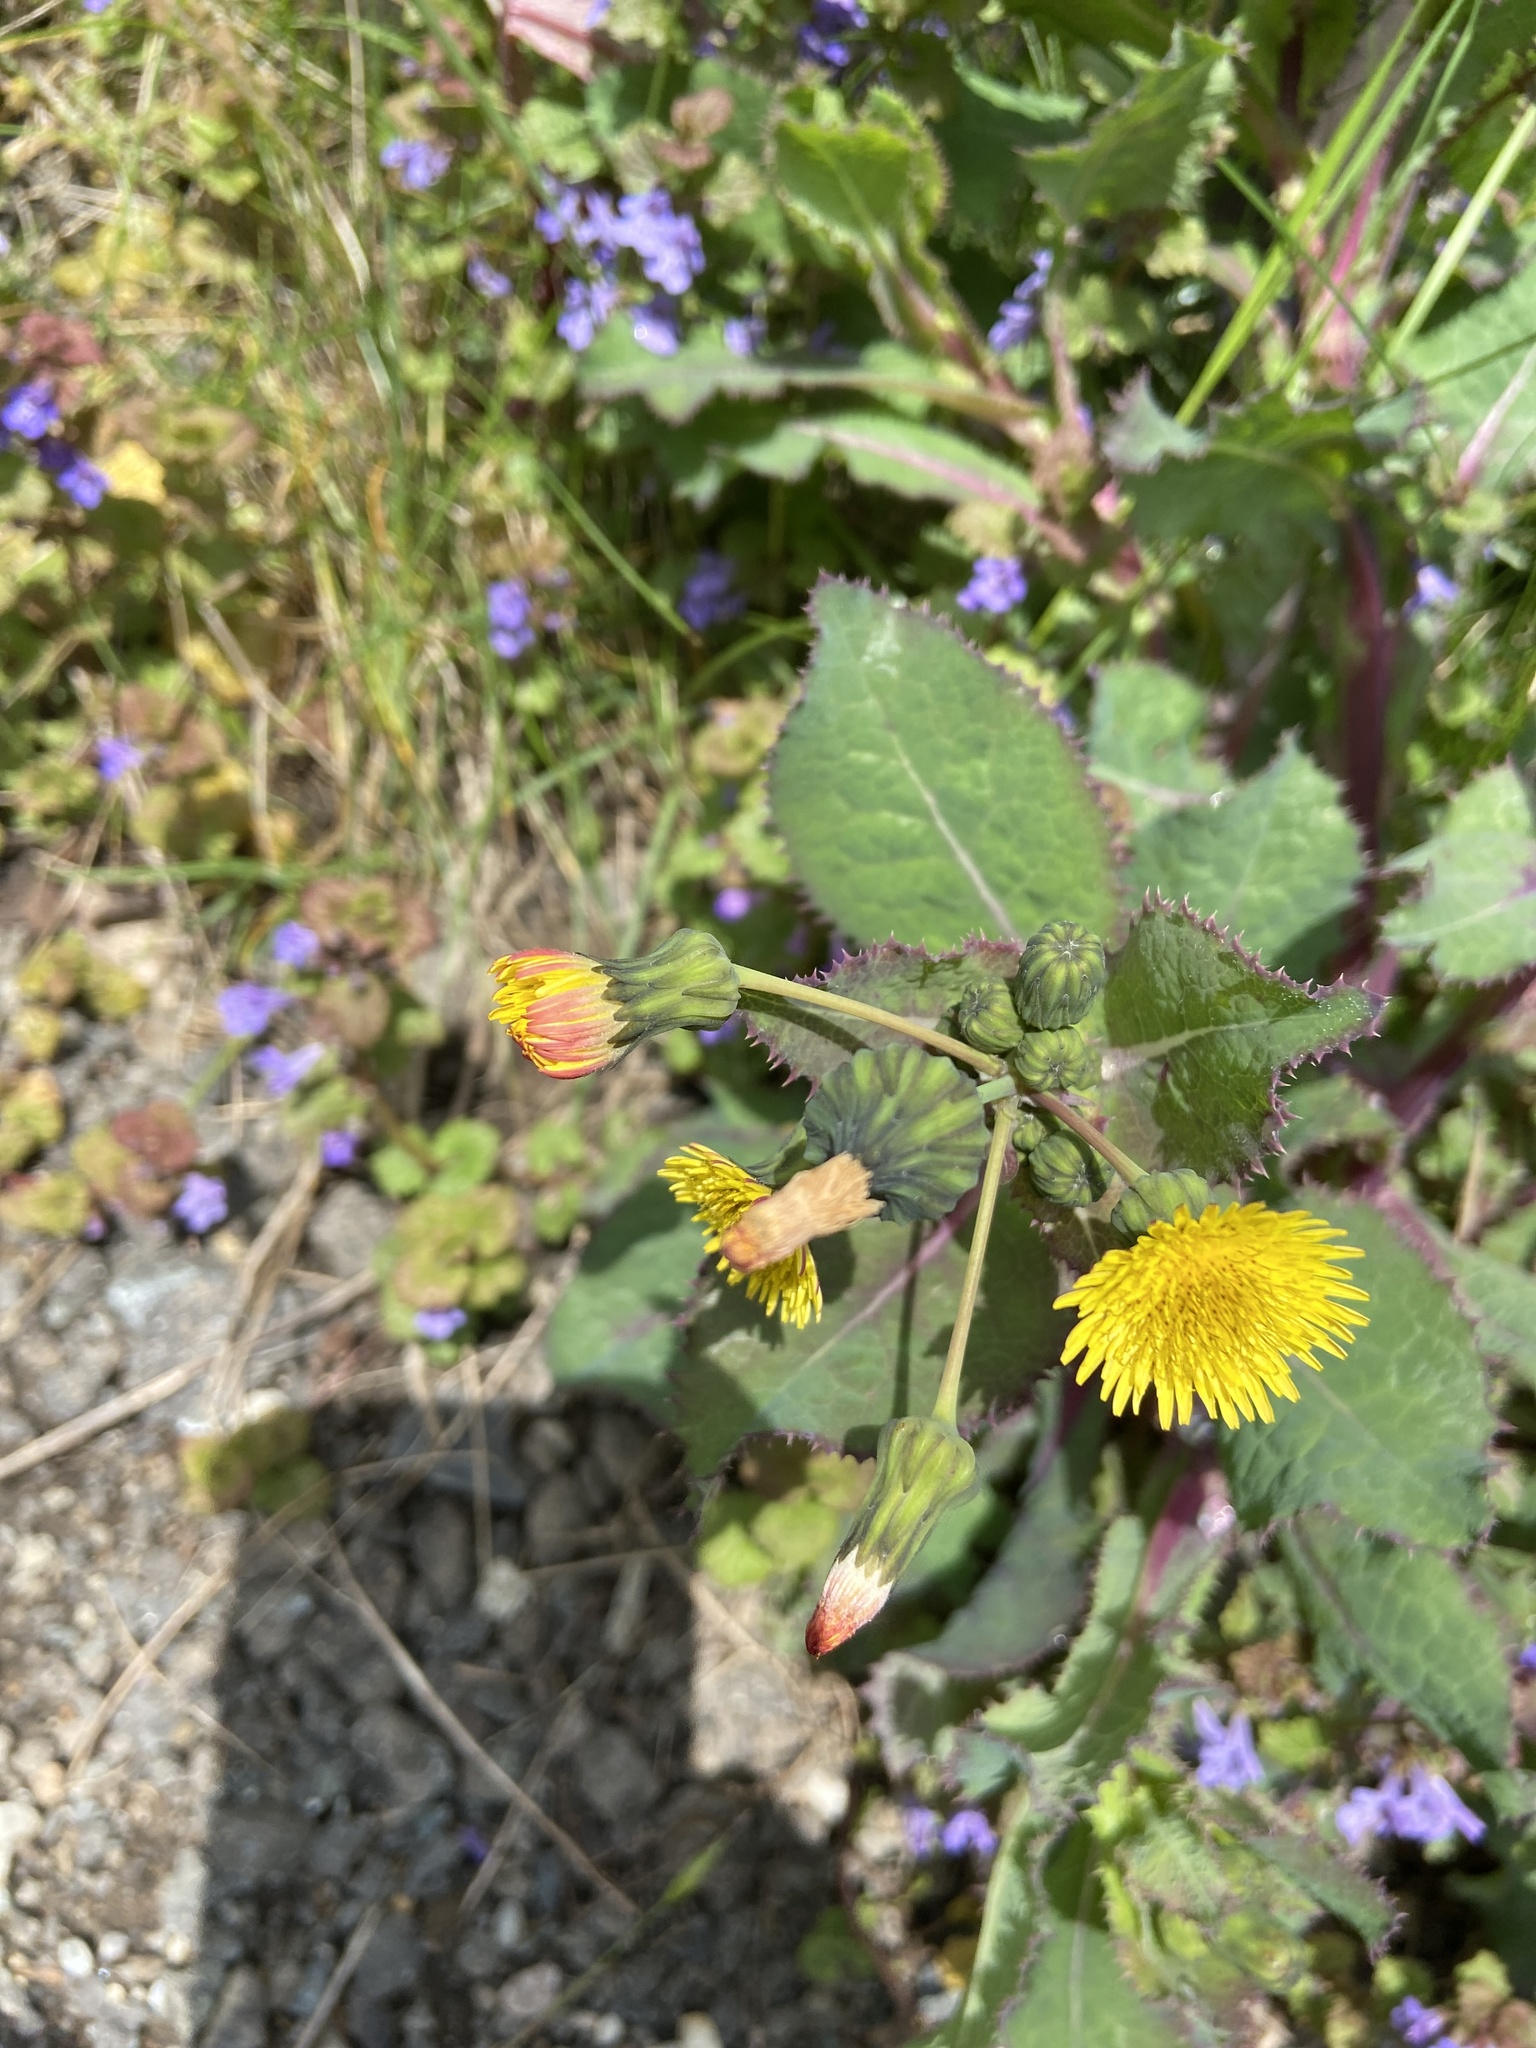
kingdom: Plantae
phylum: Tracheophyta
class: Magnoliopsida
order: Asterales
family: Asteraceae
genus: Sonchus
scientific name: Sonchus oleraceus
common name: Common sowthistle
